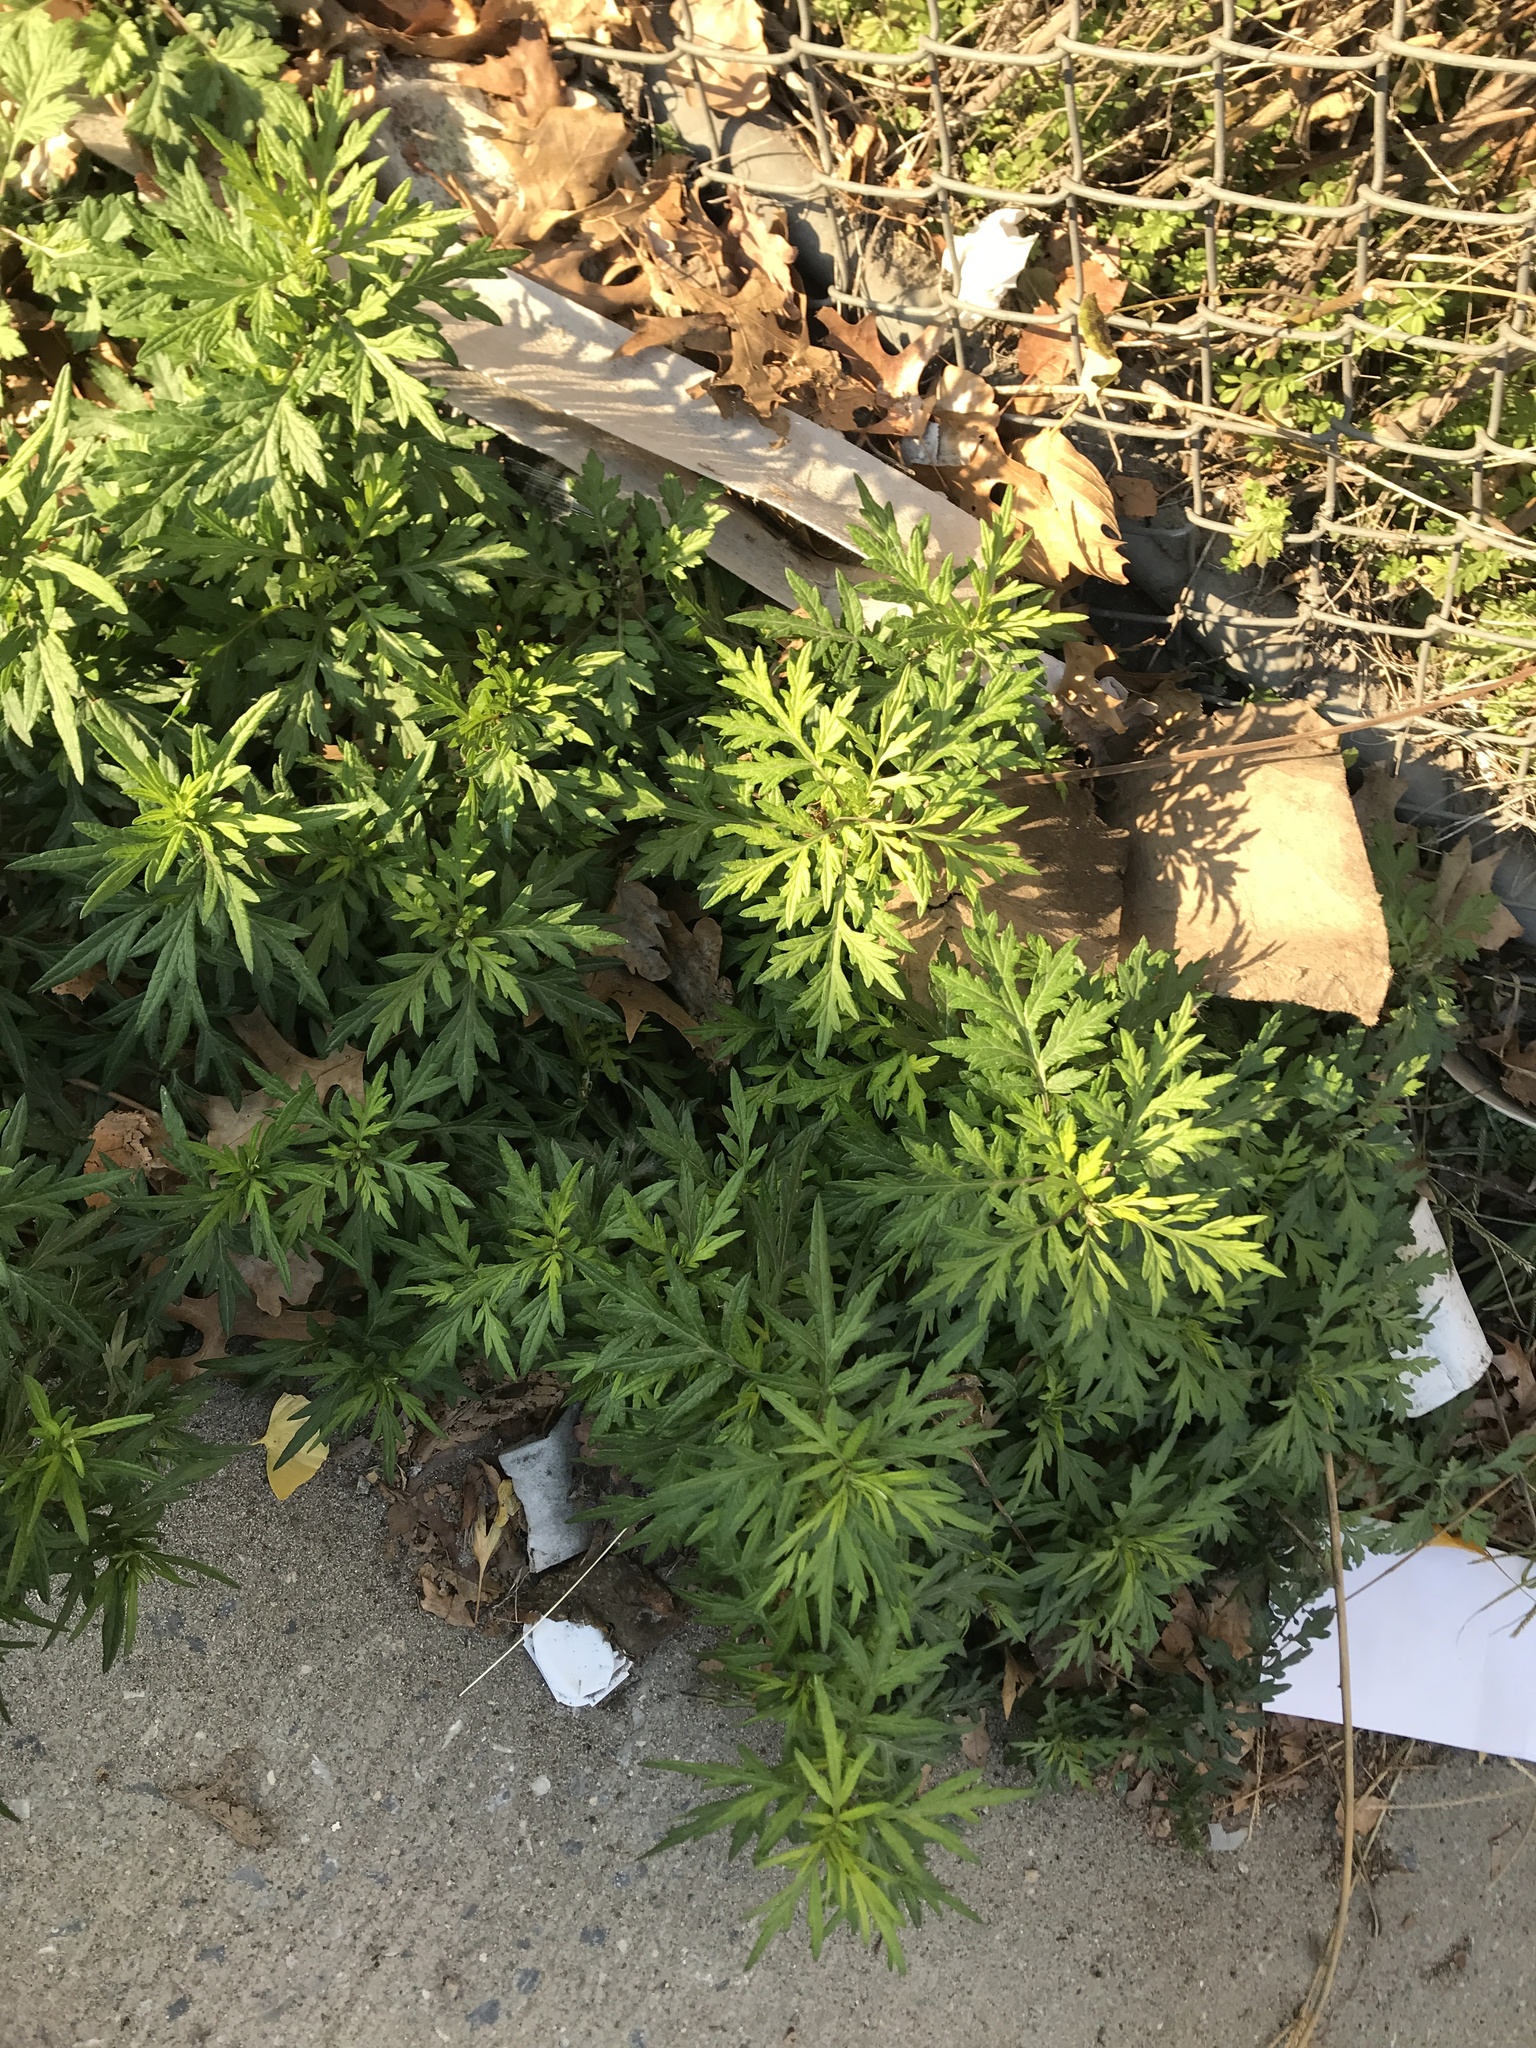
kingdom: Plantae
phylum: Tracheophyta
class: Magnoliopsida
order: Asterales
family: Asteraceae
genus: Artemisia
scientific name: Artemisia vulgaris
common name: Mugwort
